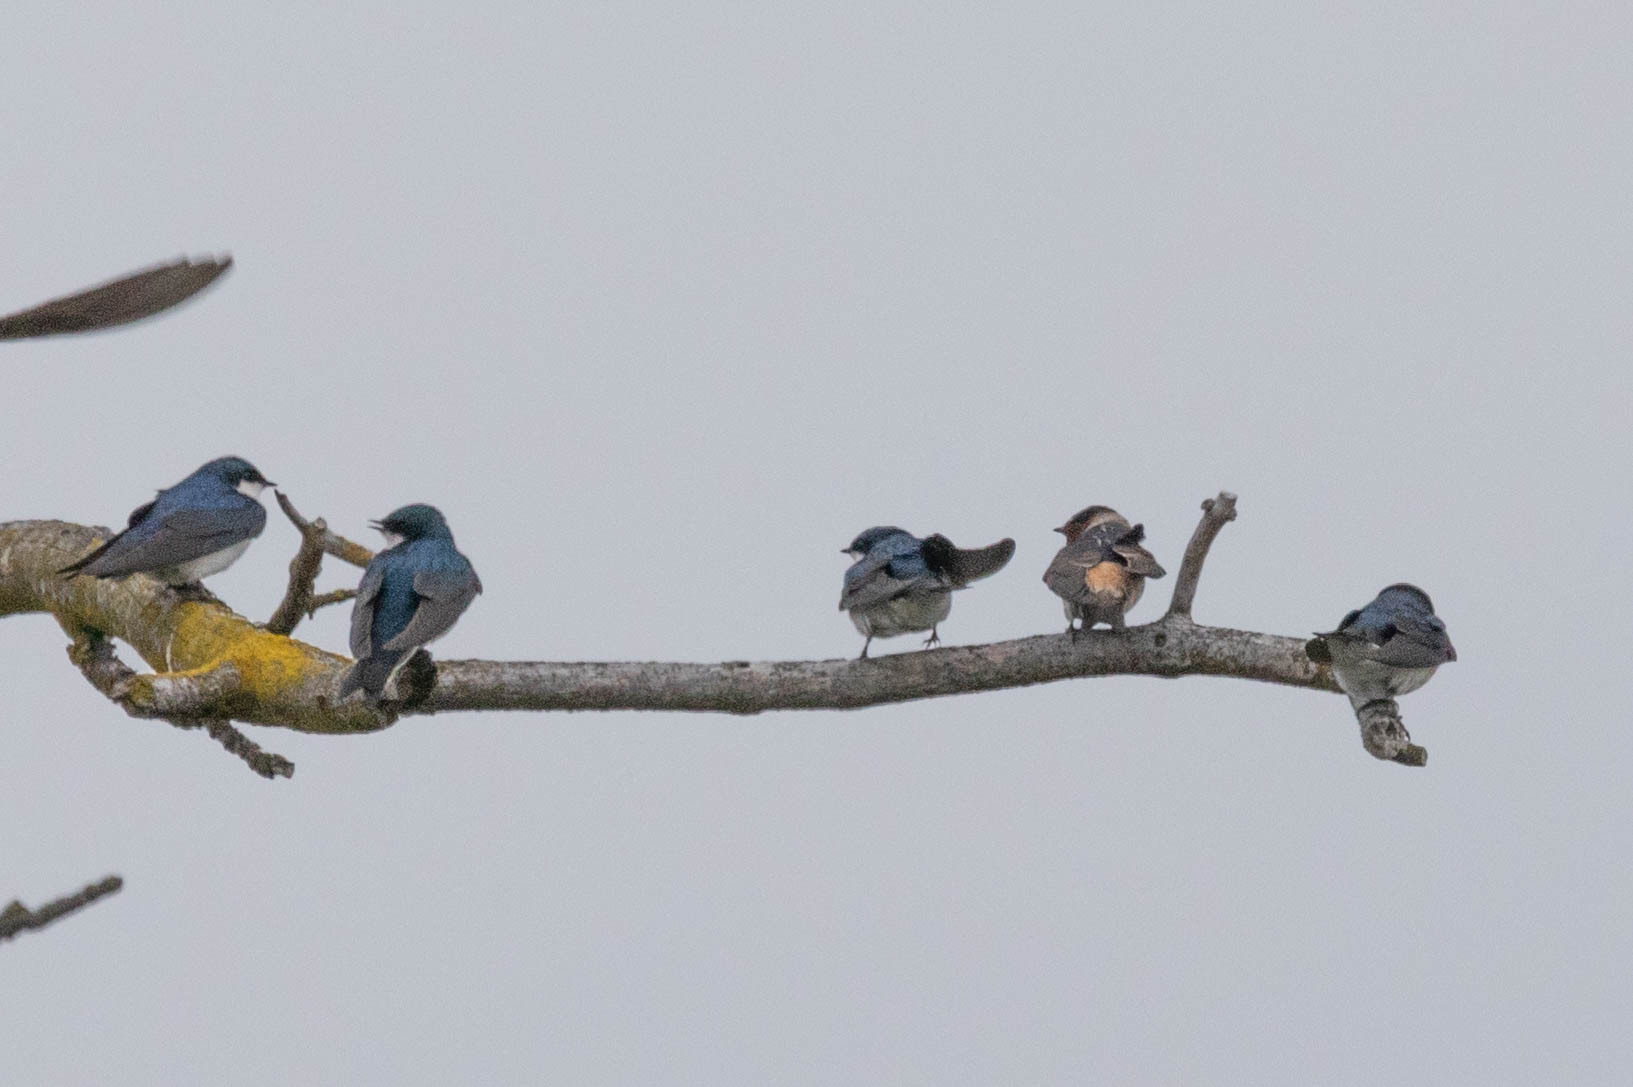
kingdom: Animalia
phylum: Chordata
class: Aves
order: Passeriformes
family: Hirundinidae
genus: Tachycineta
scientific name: Tachycineta bicolor
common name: Tree swallow
